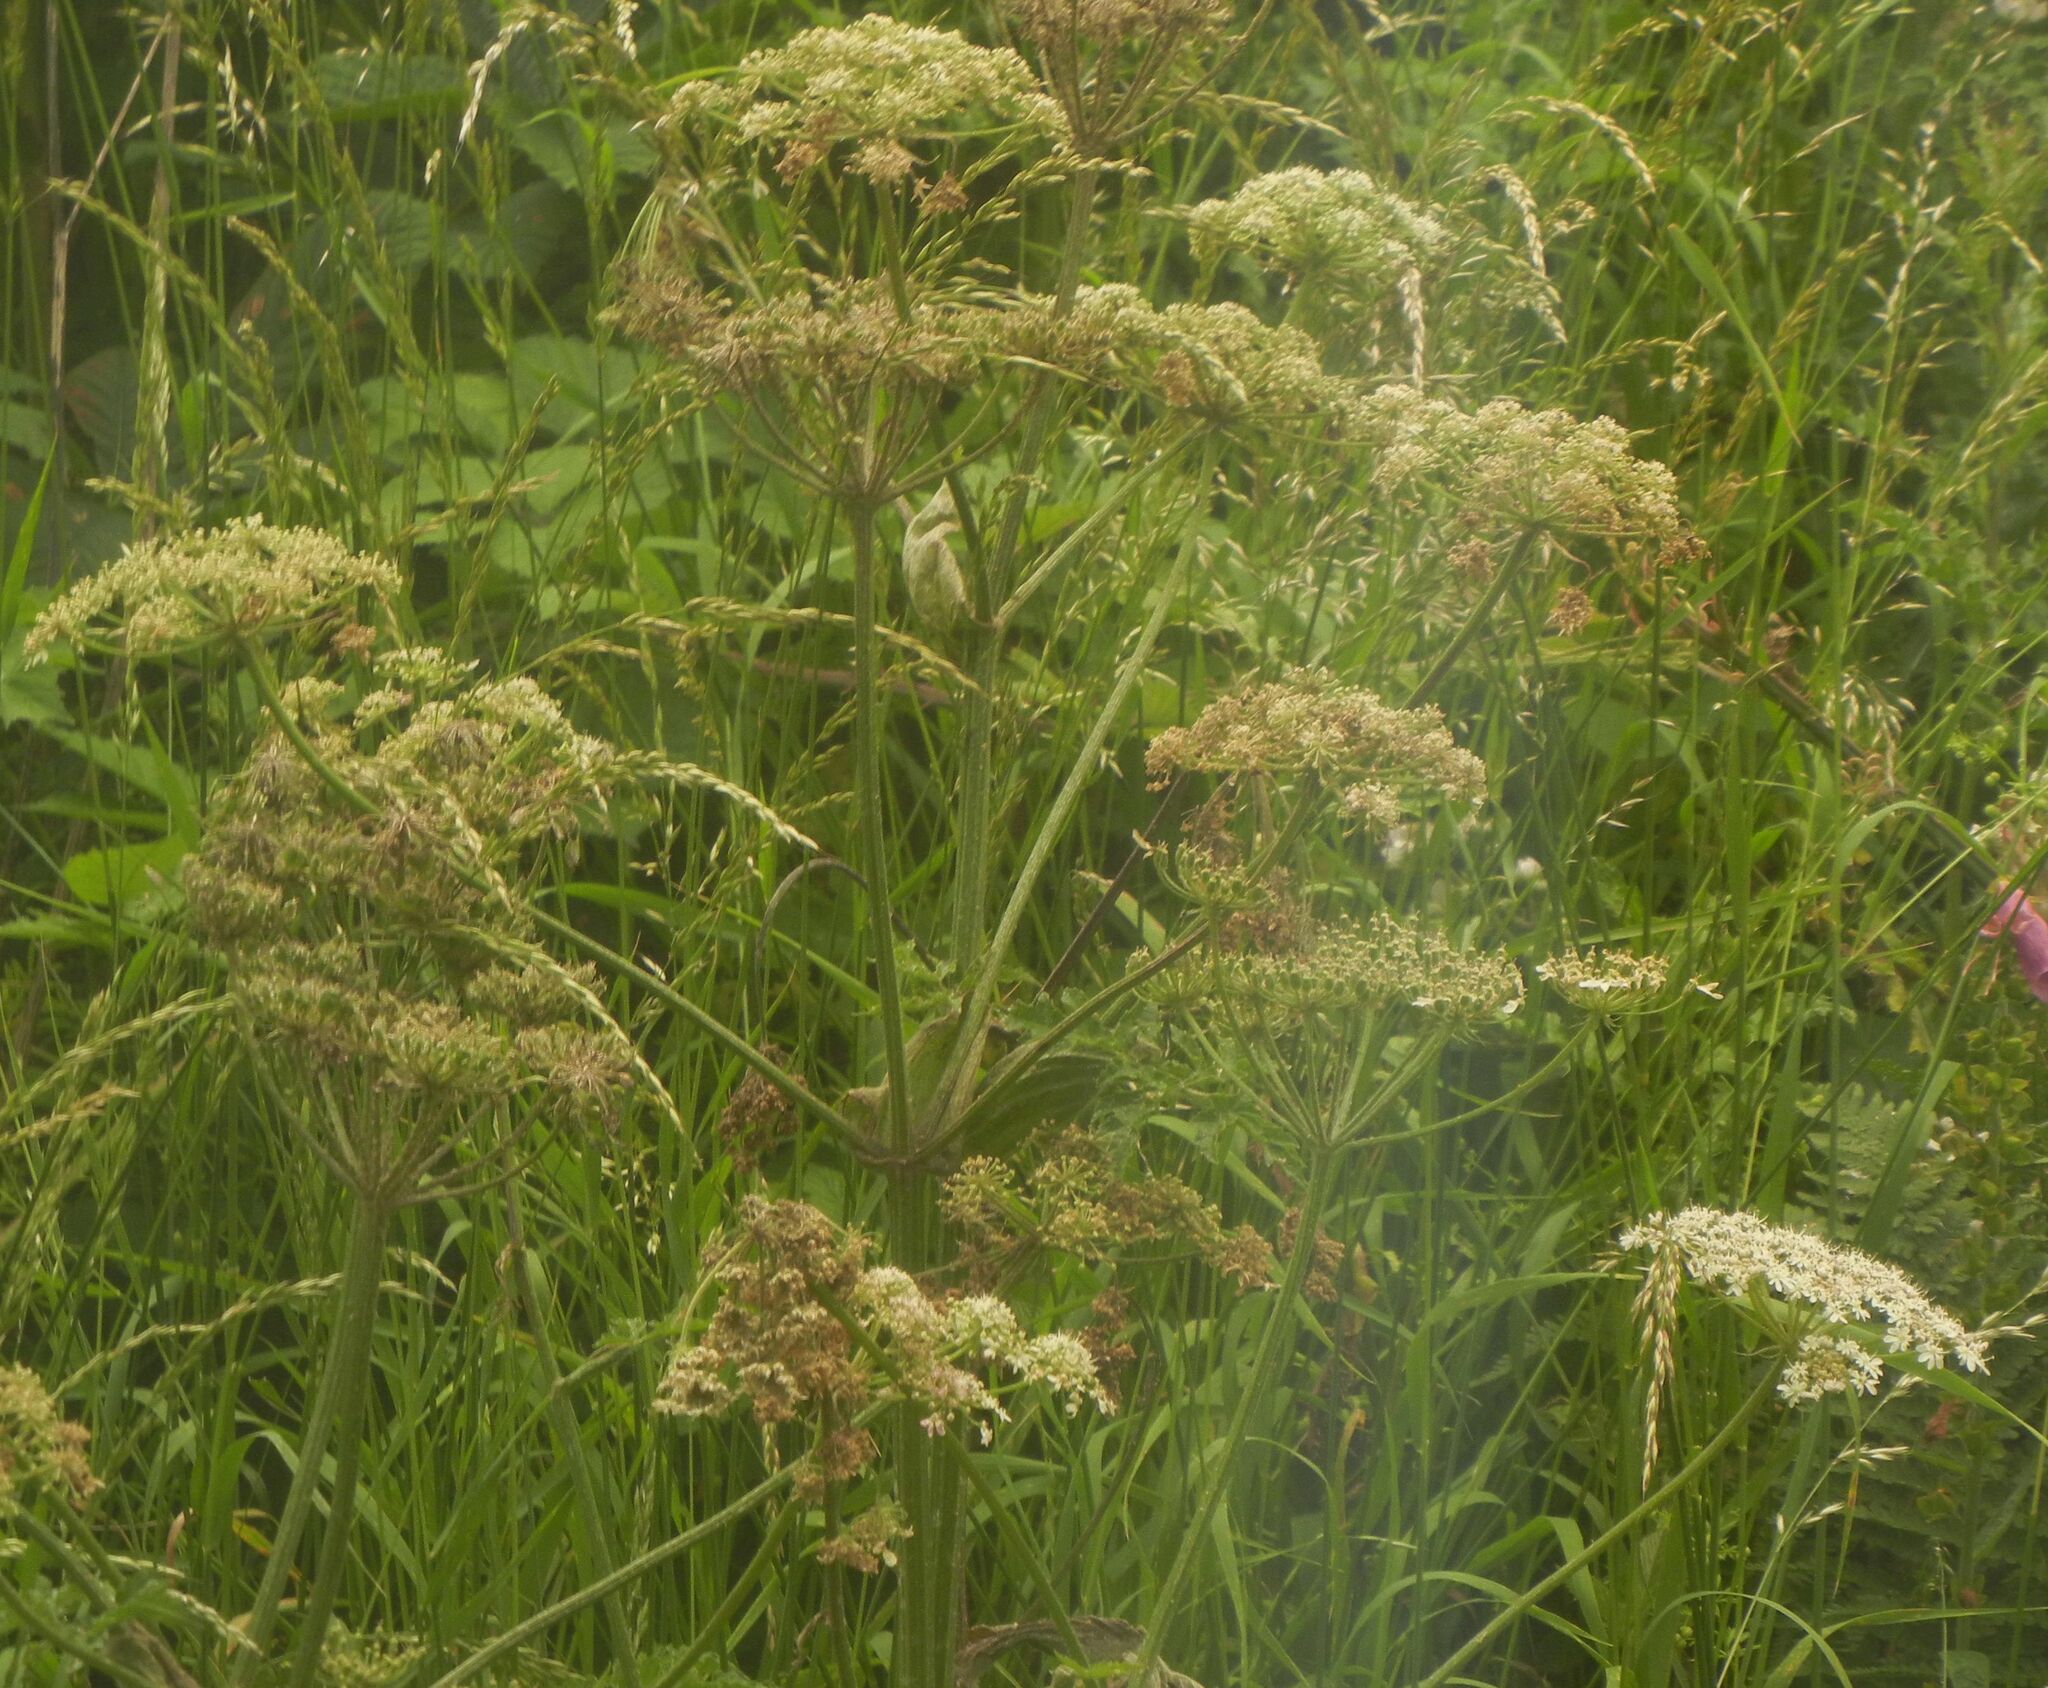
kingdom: Plantae
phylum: Tracheophyta
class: Magnoliopsida
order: Apiales
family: Apiaceae
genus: Heracleum
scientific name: Heracleum sphondylium
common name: Hogweed
